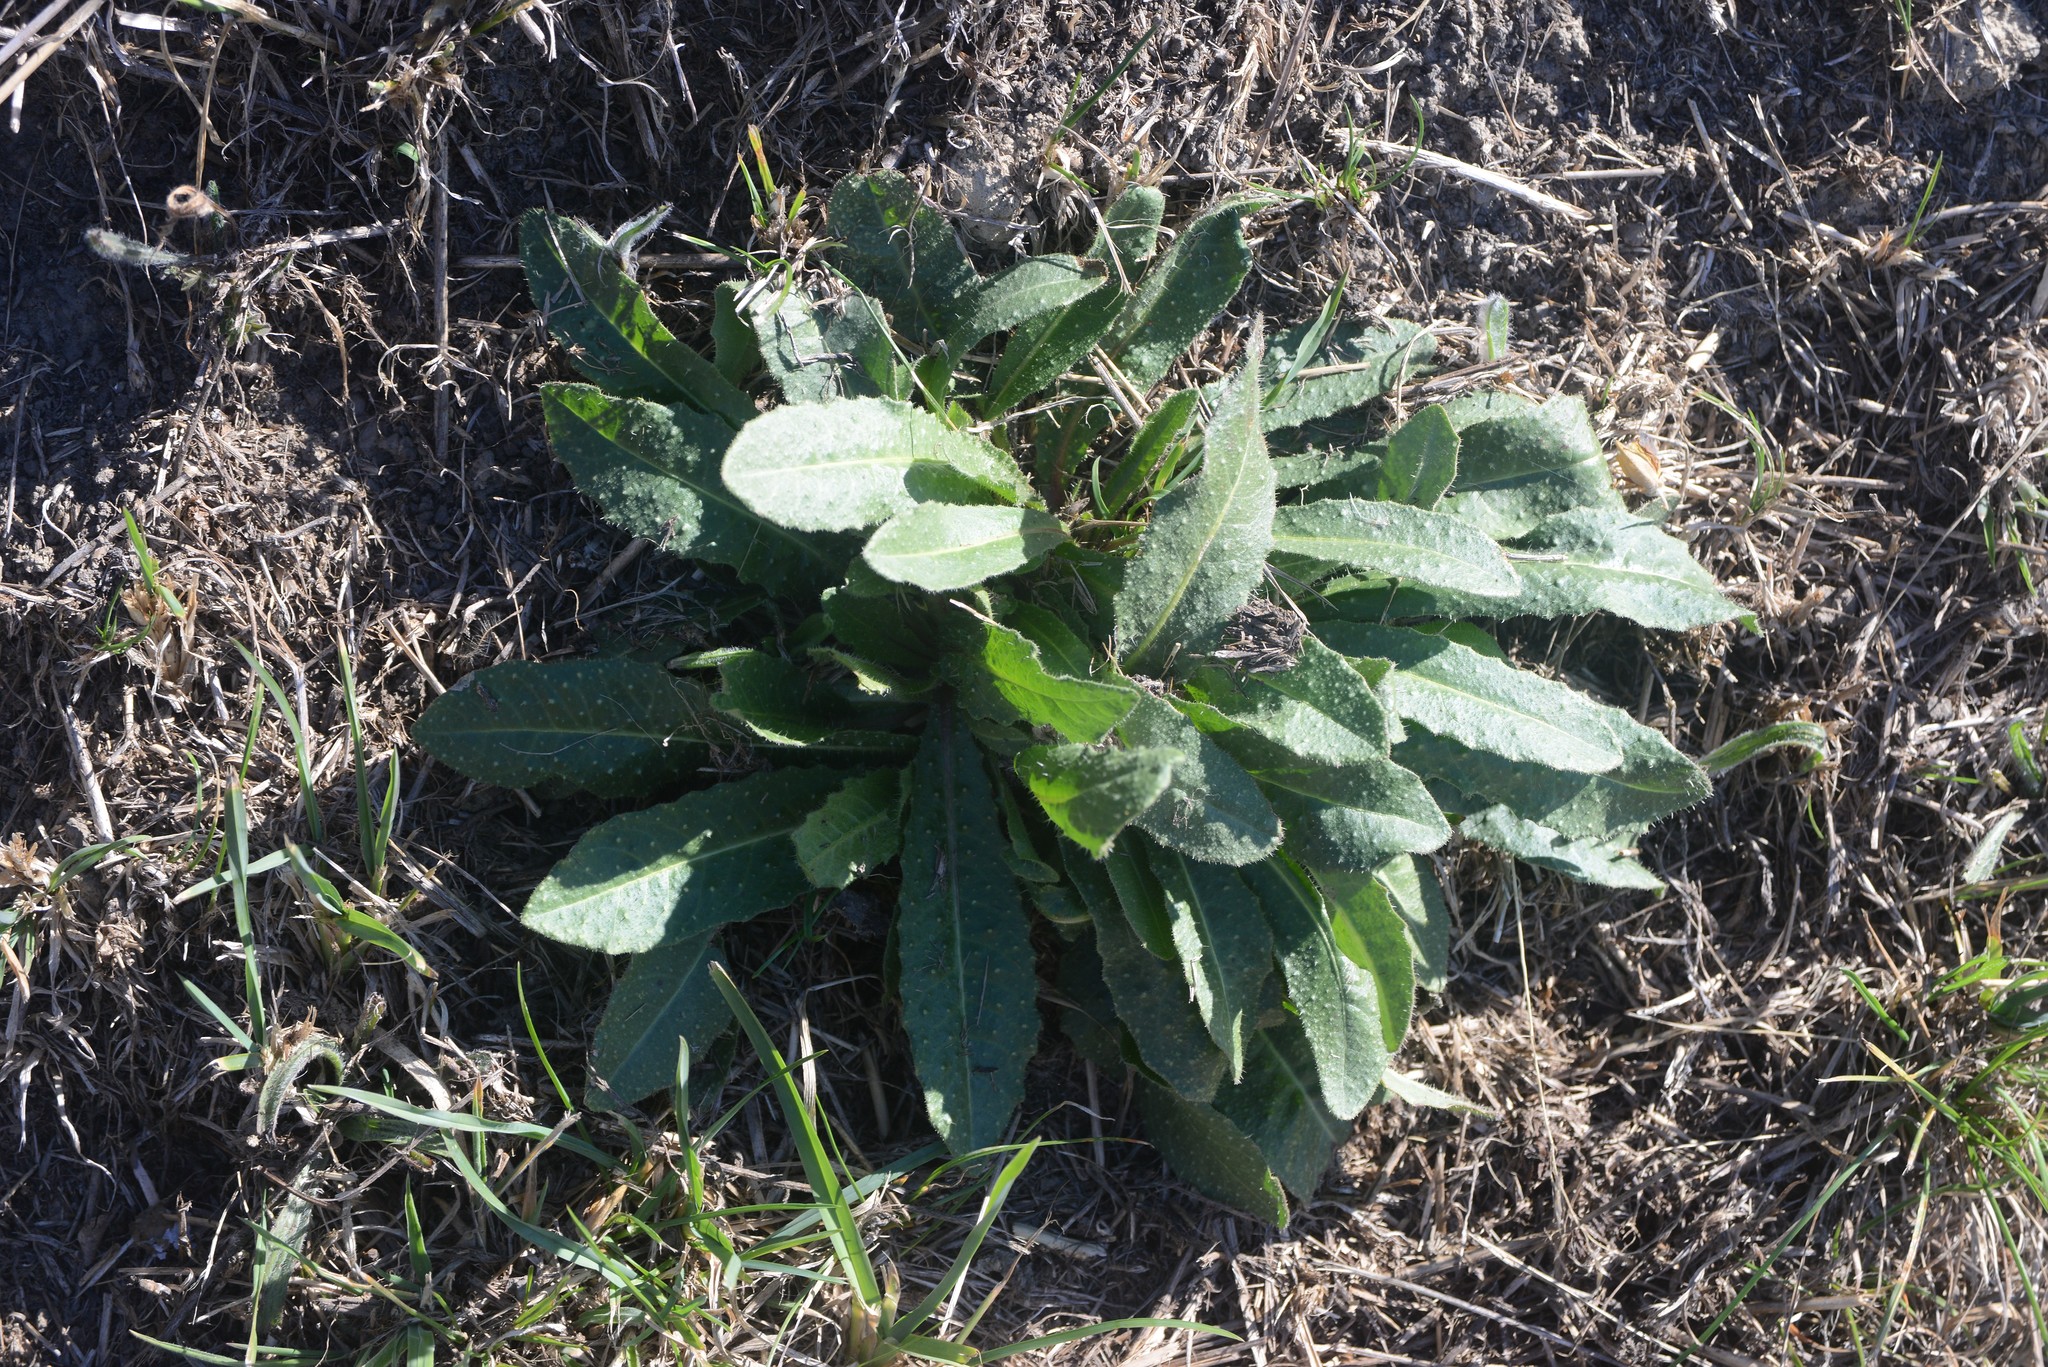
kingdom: Plantae
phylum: Tracheophyta
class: Magnoliopsida
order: Asterales
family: Asteraceae
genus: Helminthotheca
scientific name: Helminthotheca echioides
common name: Ox-tongue
